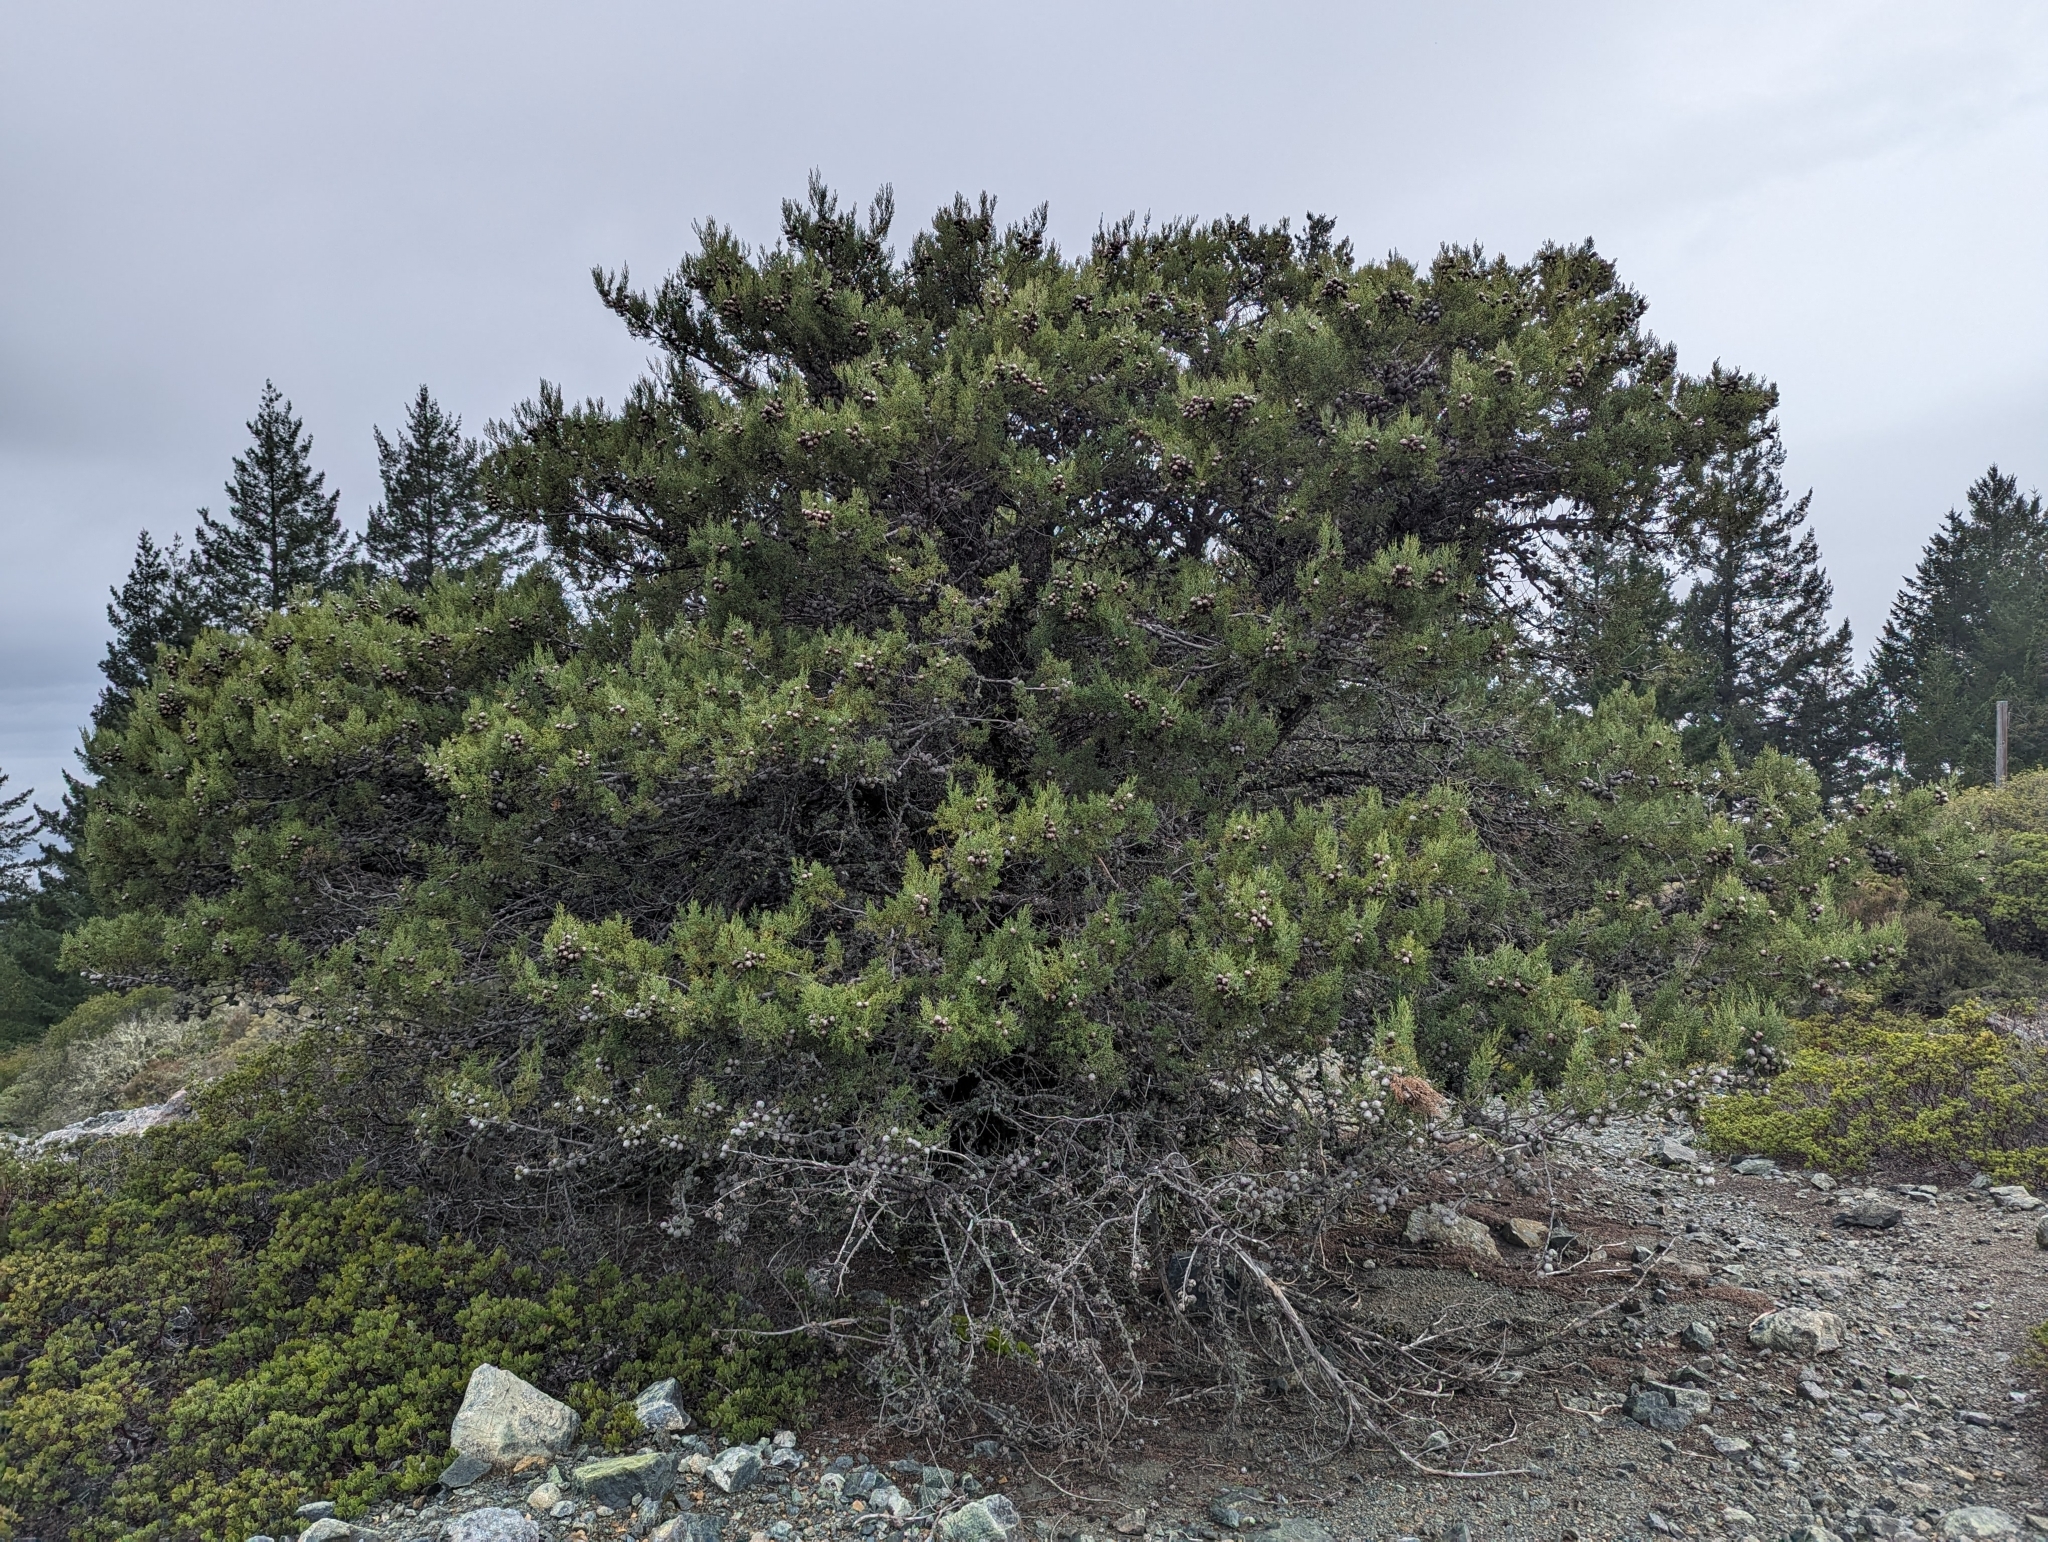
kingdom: Plantae
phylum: Tracheophyta
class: Pinopsida
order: Pinales
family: Cupressaceae
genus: Cupressus
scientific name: Cupressus sargentii
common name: Sargent cypress
